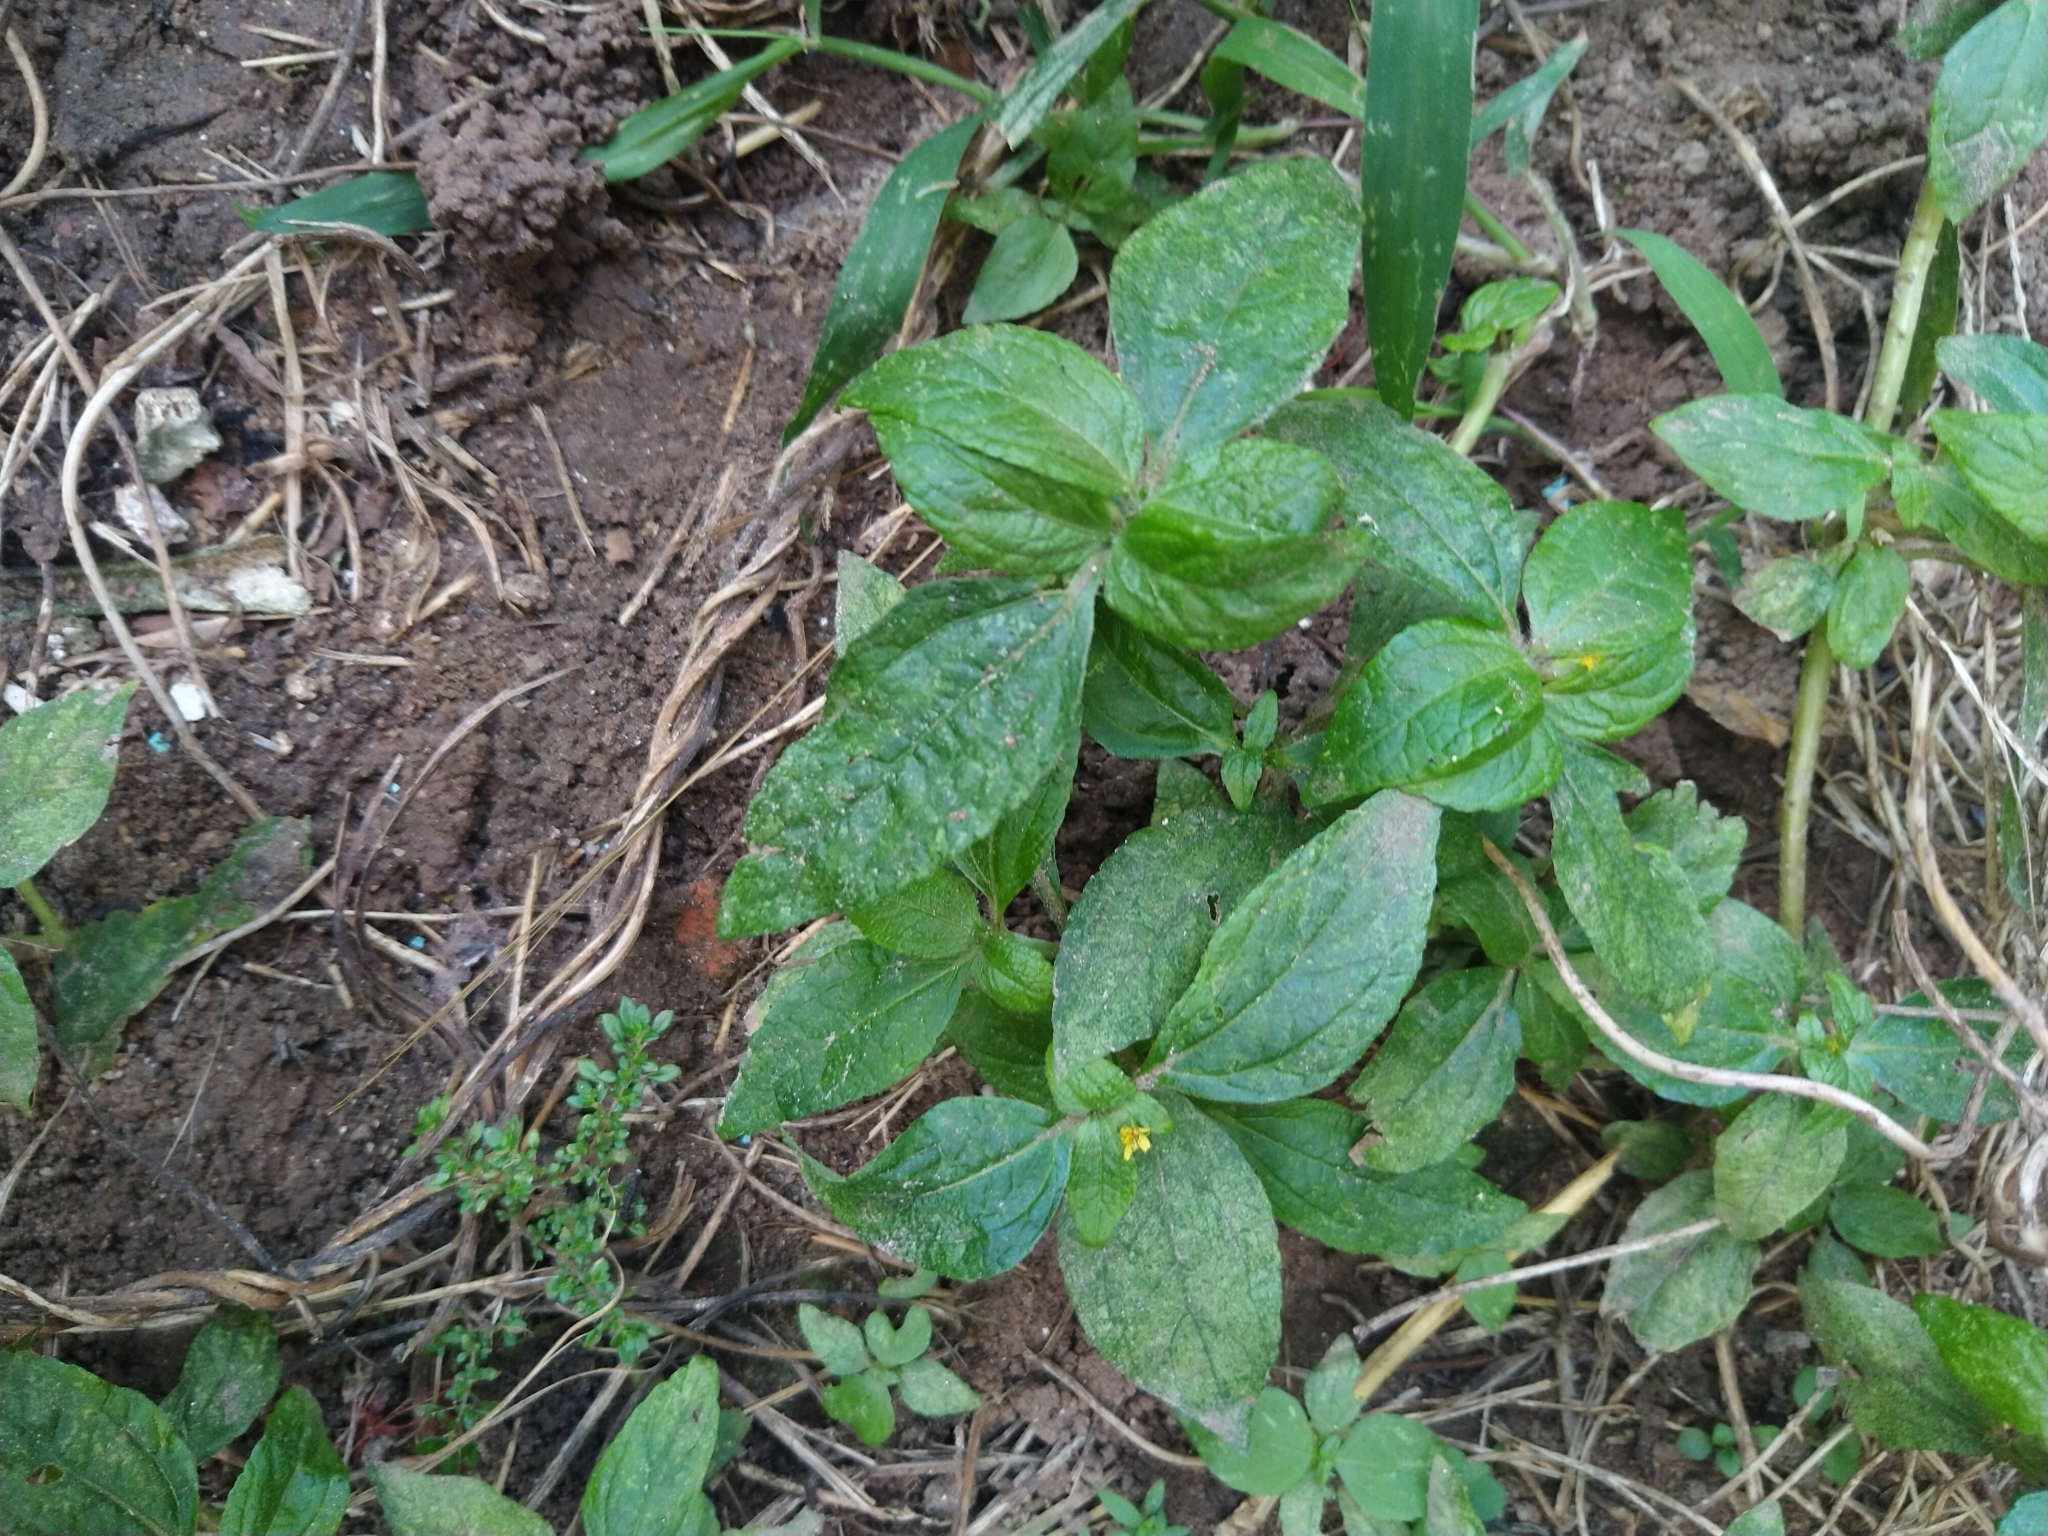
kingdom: Plantae
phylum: Tracheophyta
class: Magnoliopsida
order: Asterales
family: Asteraceae
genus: Synedrella
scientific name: Synedrella nodiflora
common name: Nodeweed
